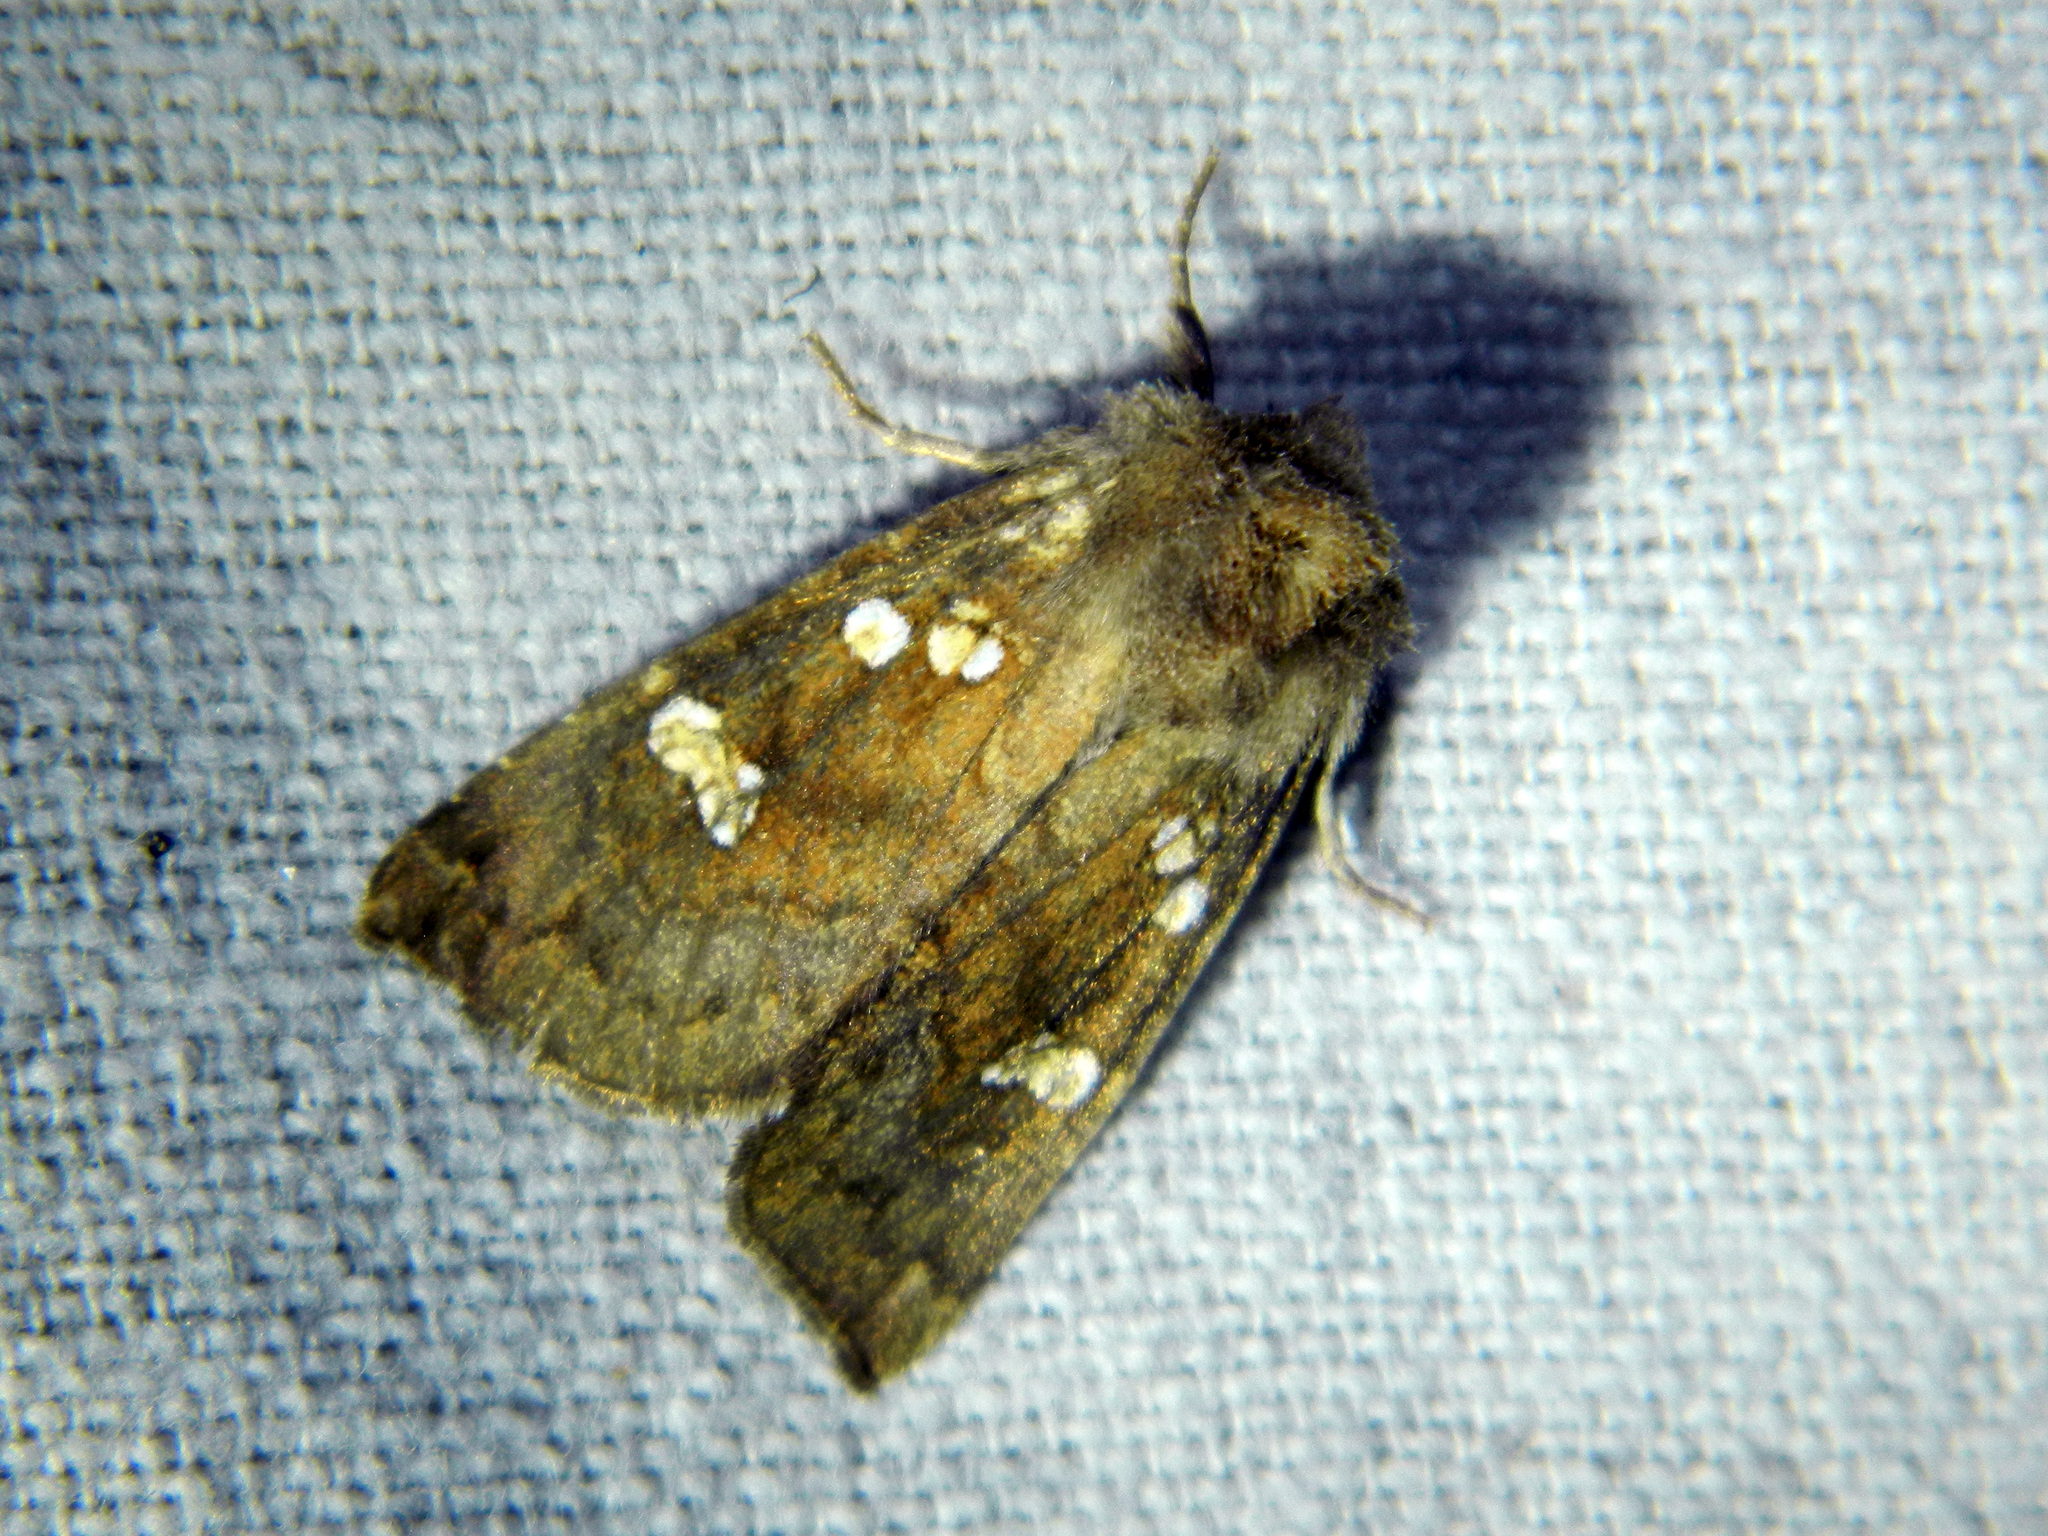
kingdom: Animalia
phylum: Arthropoda
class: Insecta
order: Lepidoptera
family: Noctuidae
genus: Papaipema
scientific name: Papaipema unimoda
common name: Meadow rue borer moth
